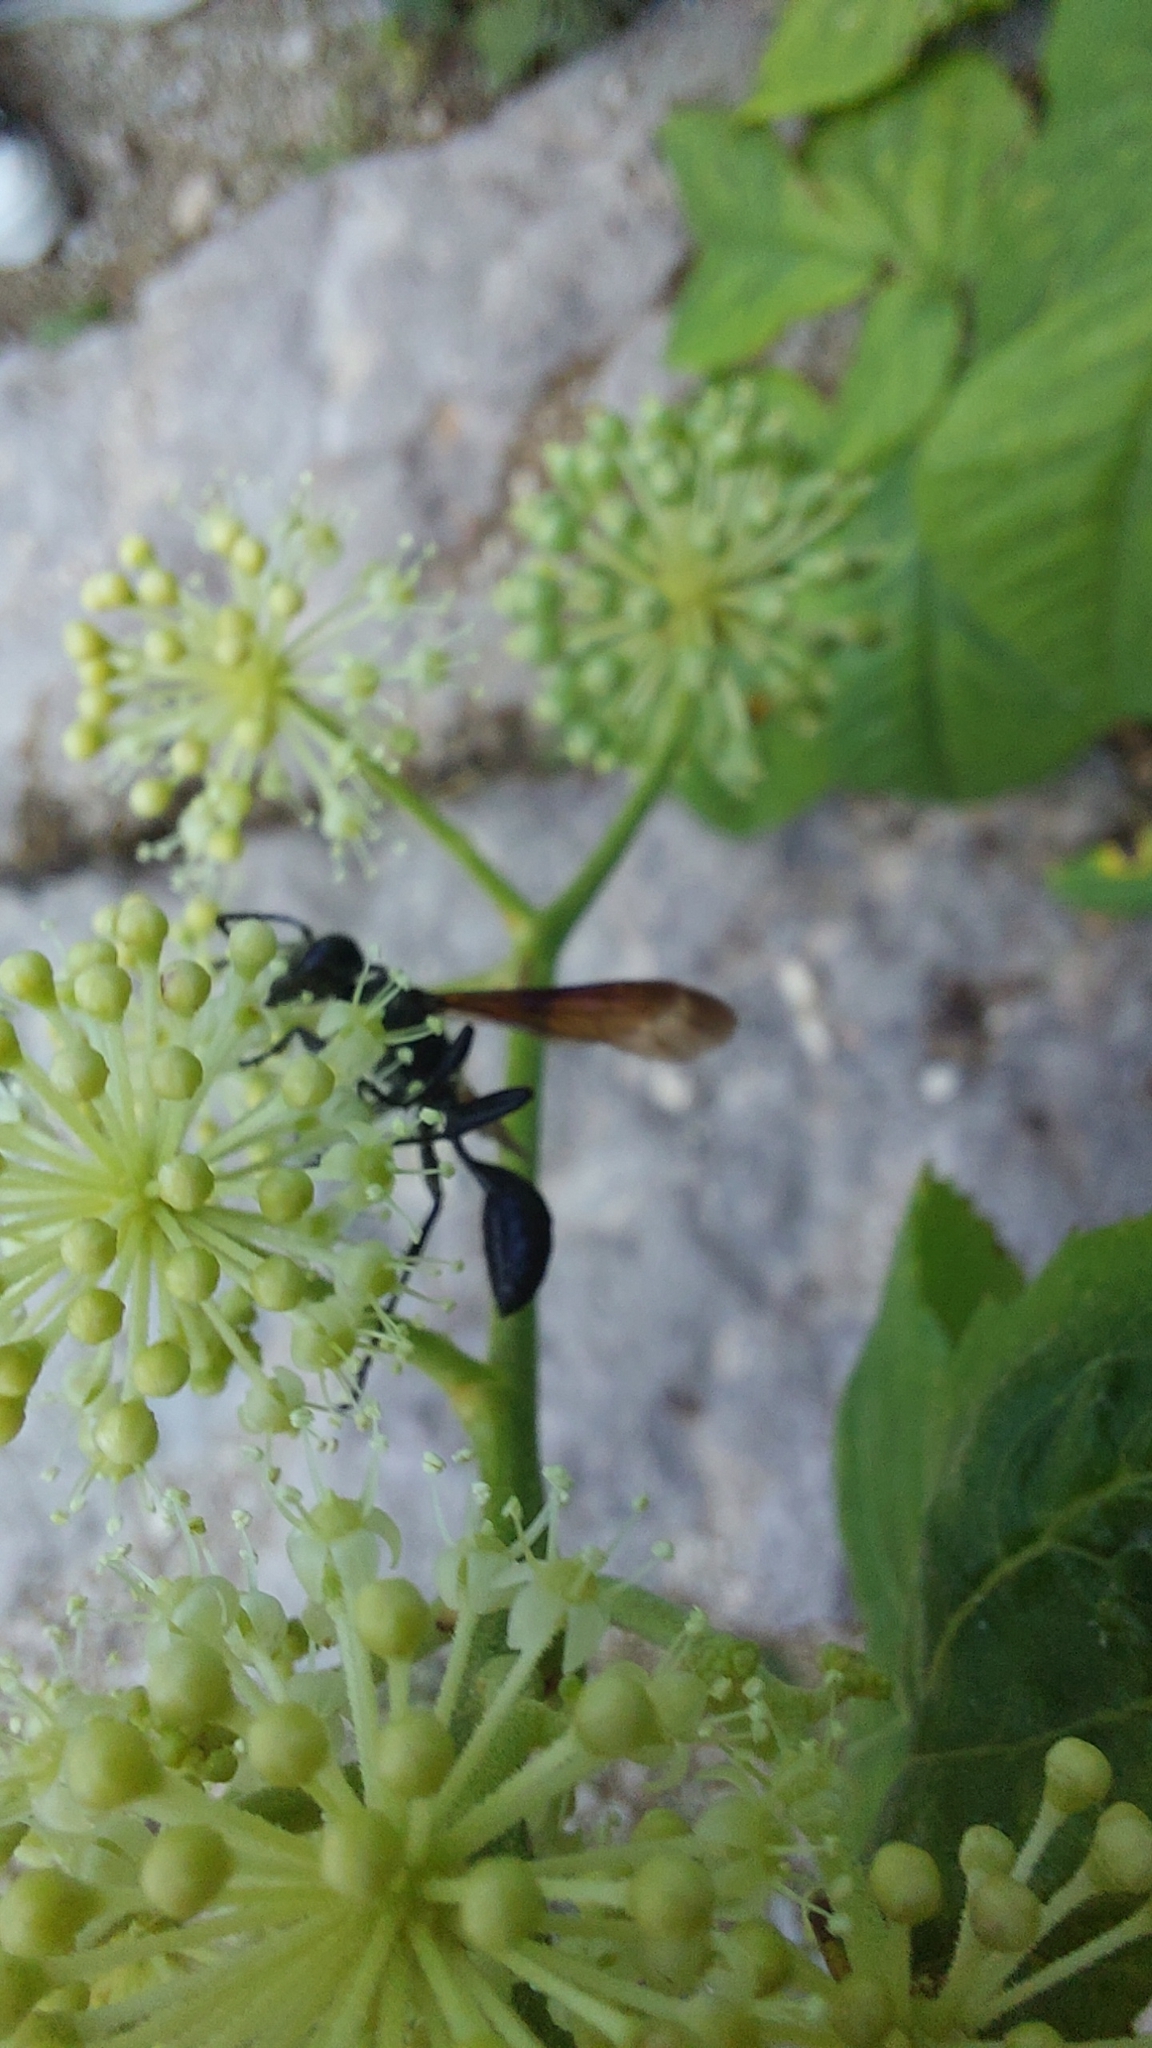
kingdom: Animalia
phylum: Arthropoda
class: Insecta
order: Hymenoptera
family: Sphecidae
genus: Isodontia
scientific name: Isodontia mexicana
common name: Mud dauber
